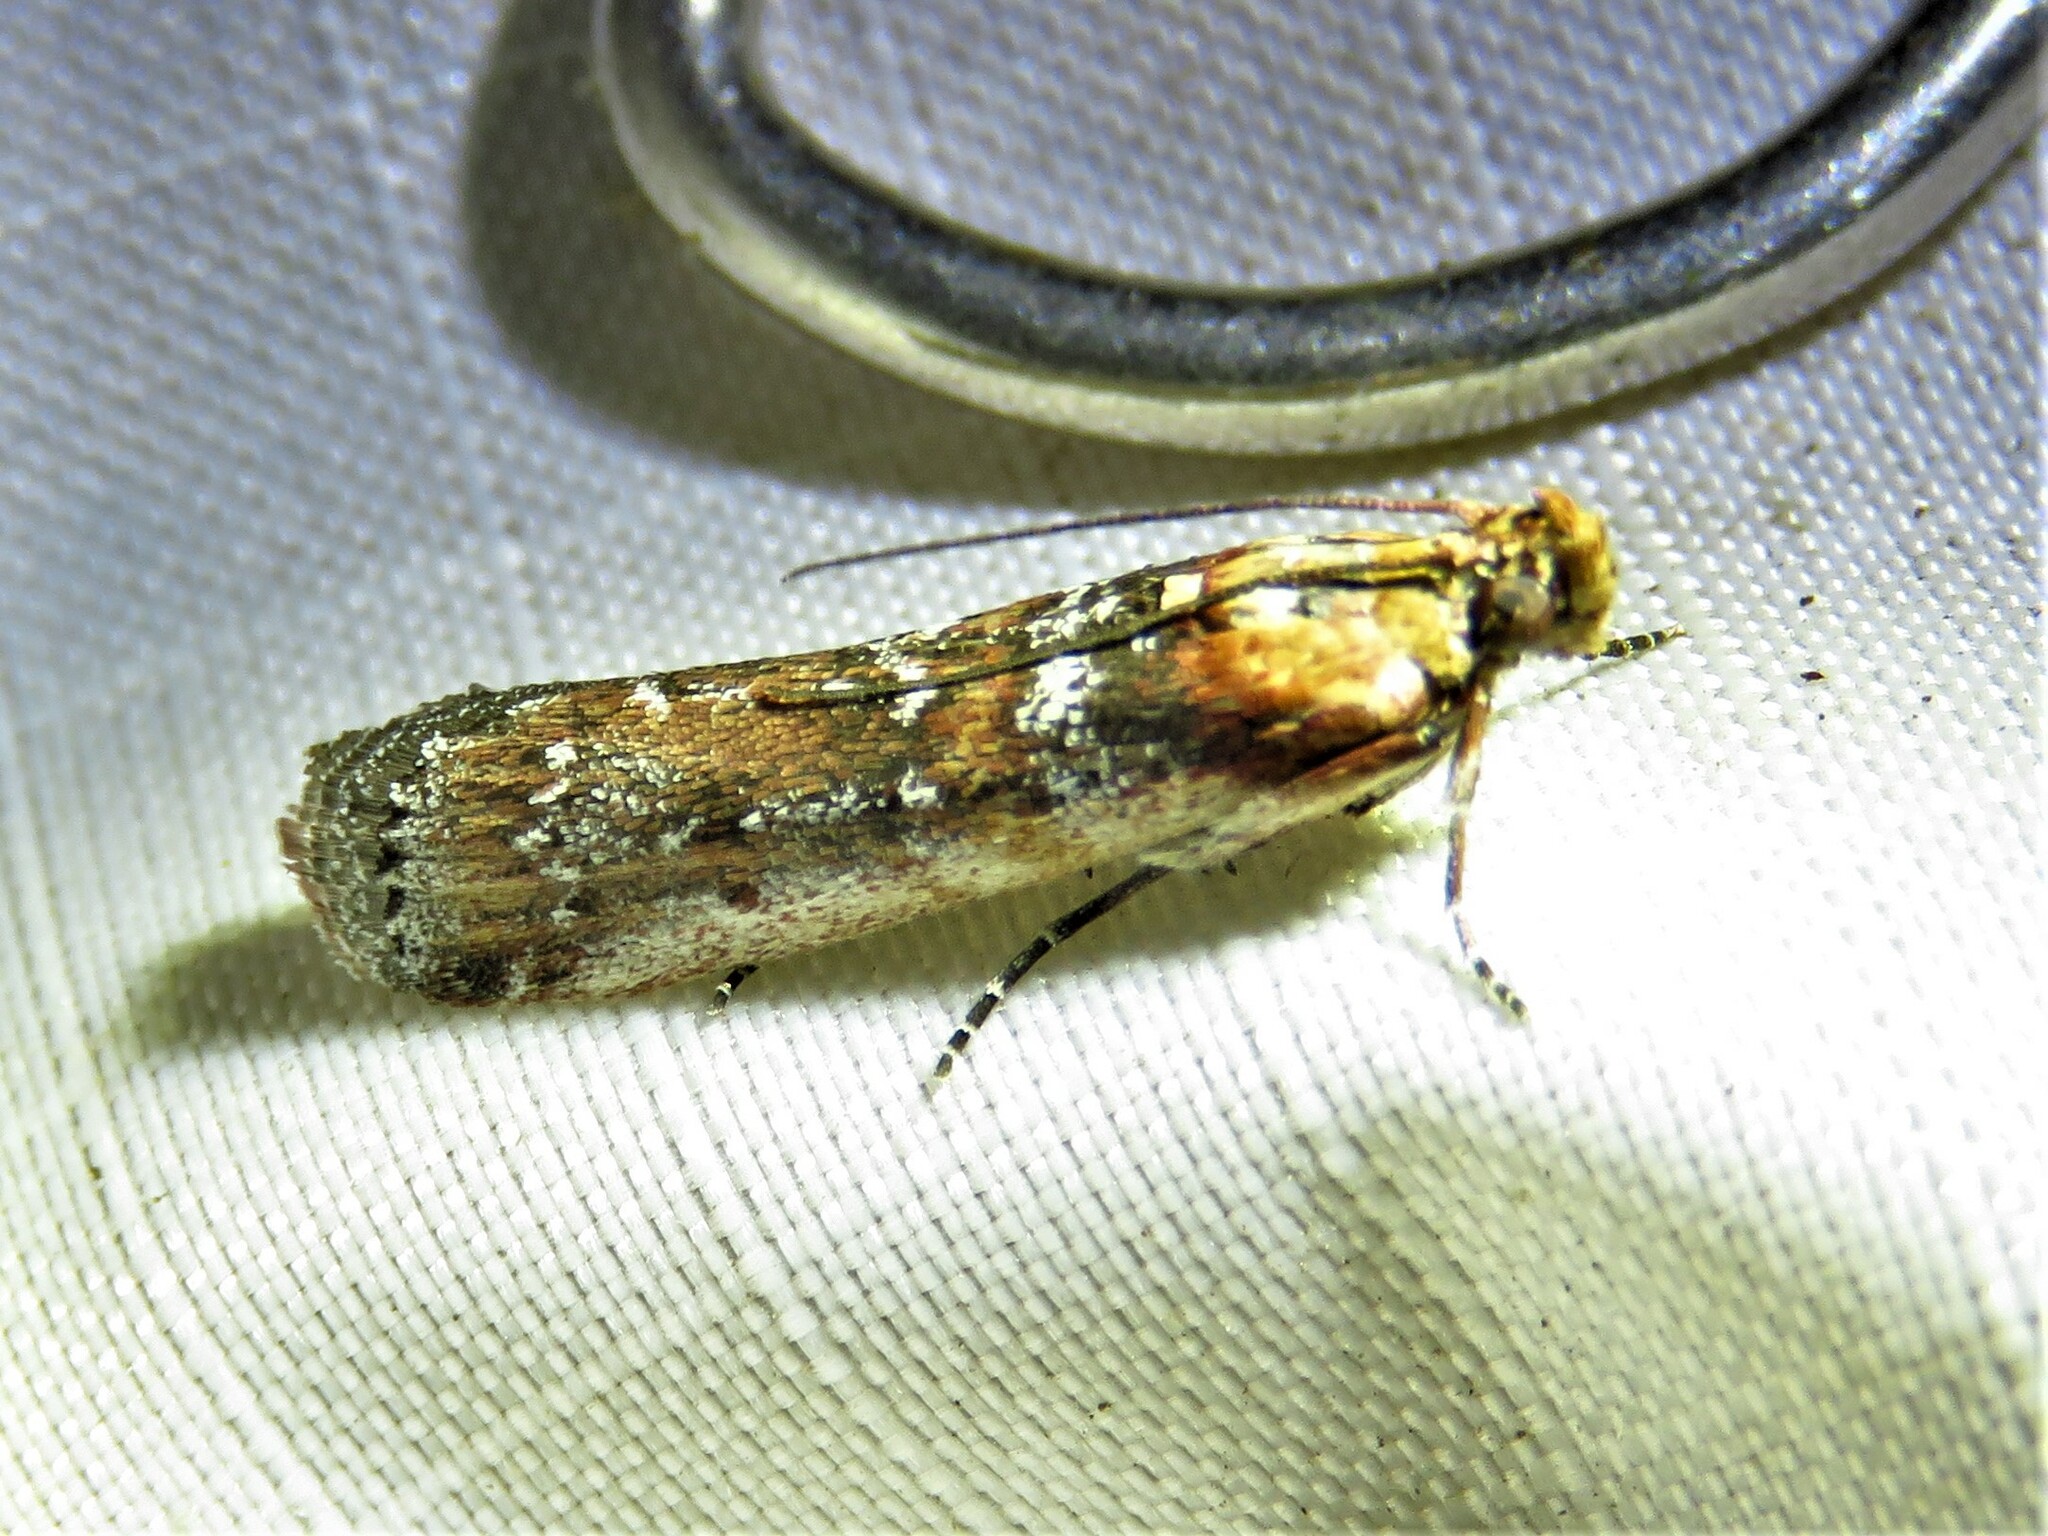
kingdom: Animalia
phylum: Arthropoda
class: Insecta
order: Lepidoptera
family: Pyralidae
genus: Adelphia
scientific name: Adelphia petrella
